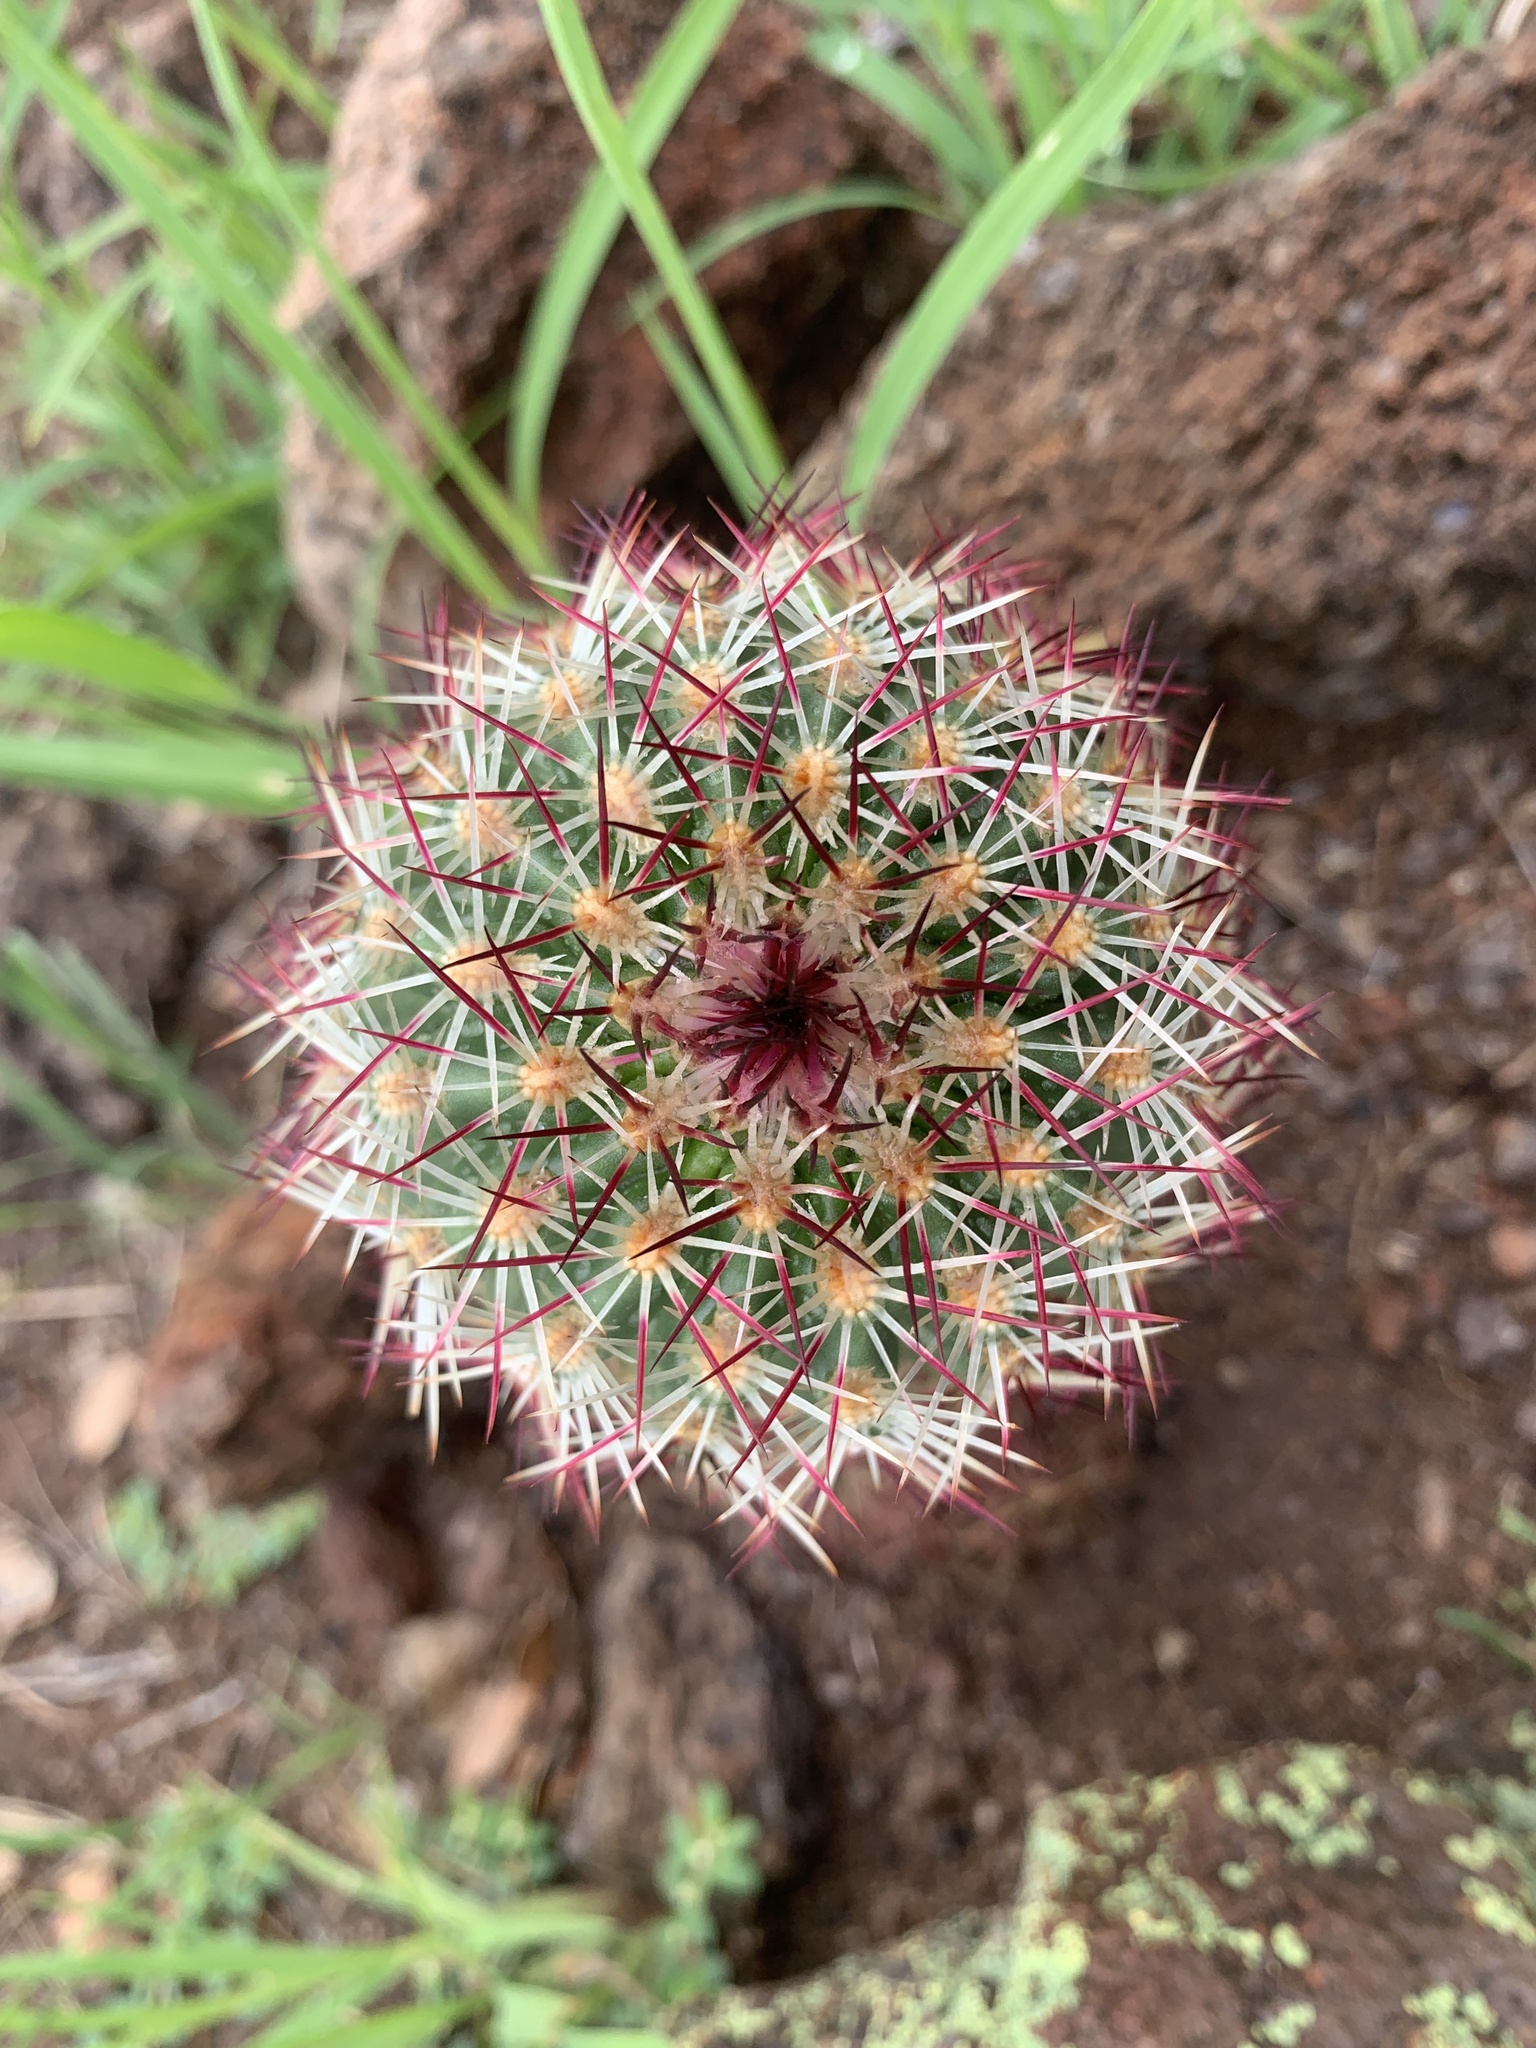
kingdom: Plantae
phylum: Tracheophyta
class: Magnoliopsida
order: Caryophyllales
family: Cactaceae
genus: Echinocereus
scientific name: Echinocereus viridiflorus
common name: Nylon hedgehog cactus
